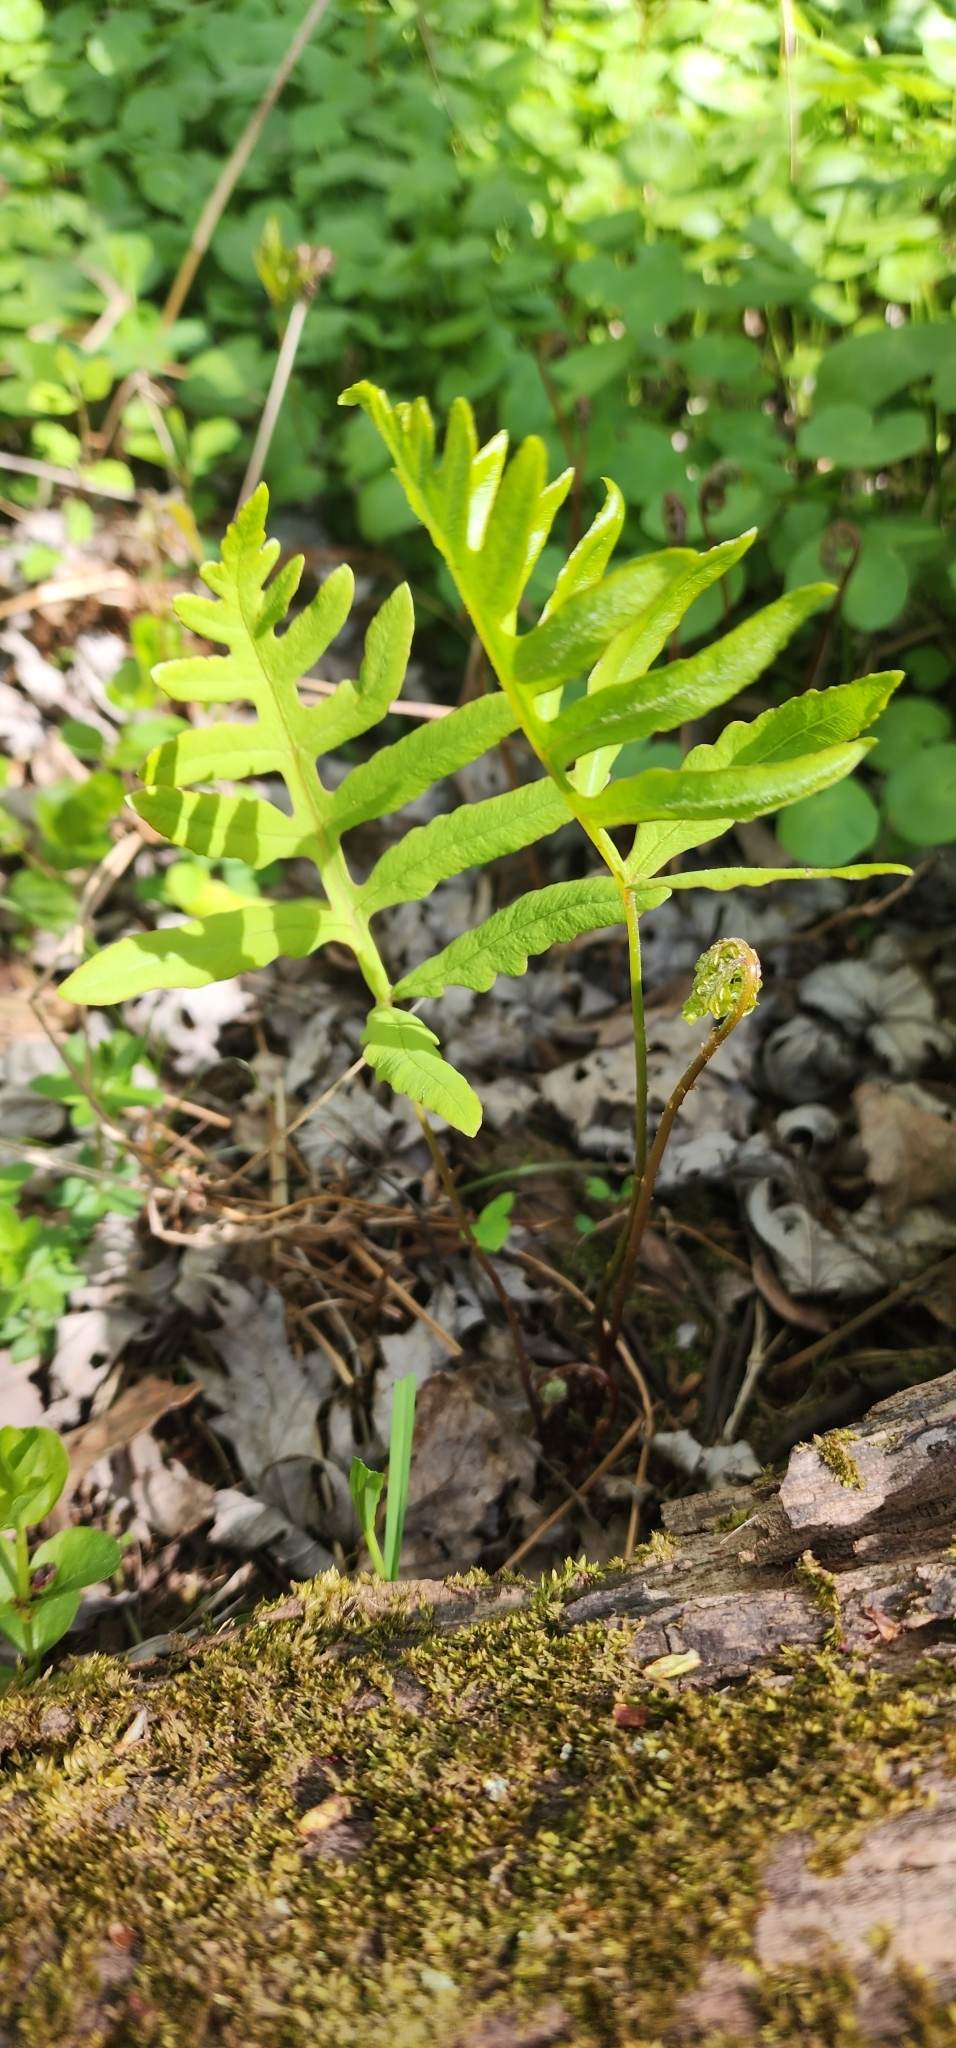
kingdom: Plantae
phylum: Tracheophyta
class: Polypodiopsida
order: Polypodiales
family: Onocleaceae
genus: Onoclea
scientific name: Onoclea sensibilis
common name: Sensitive fern
